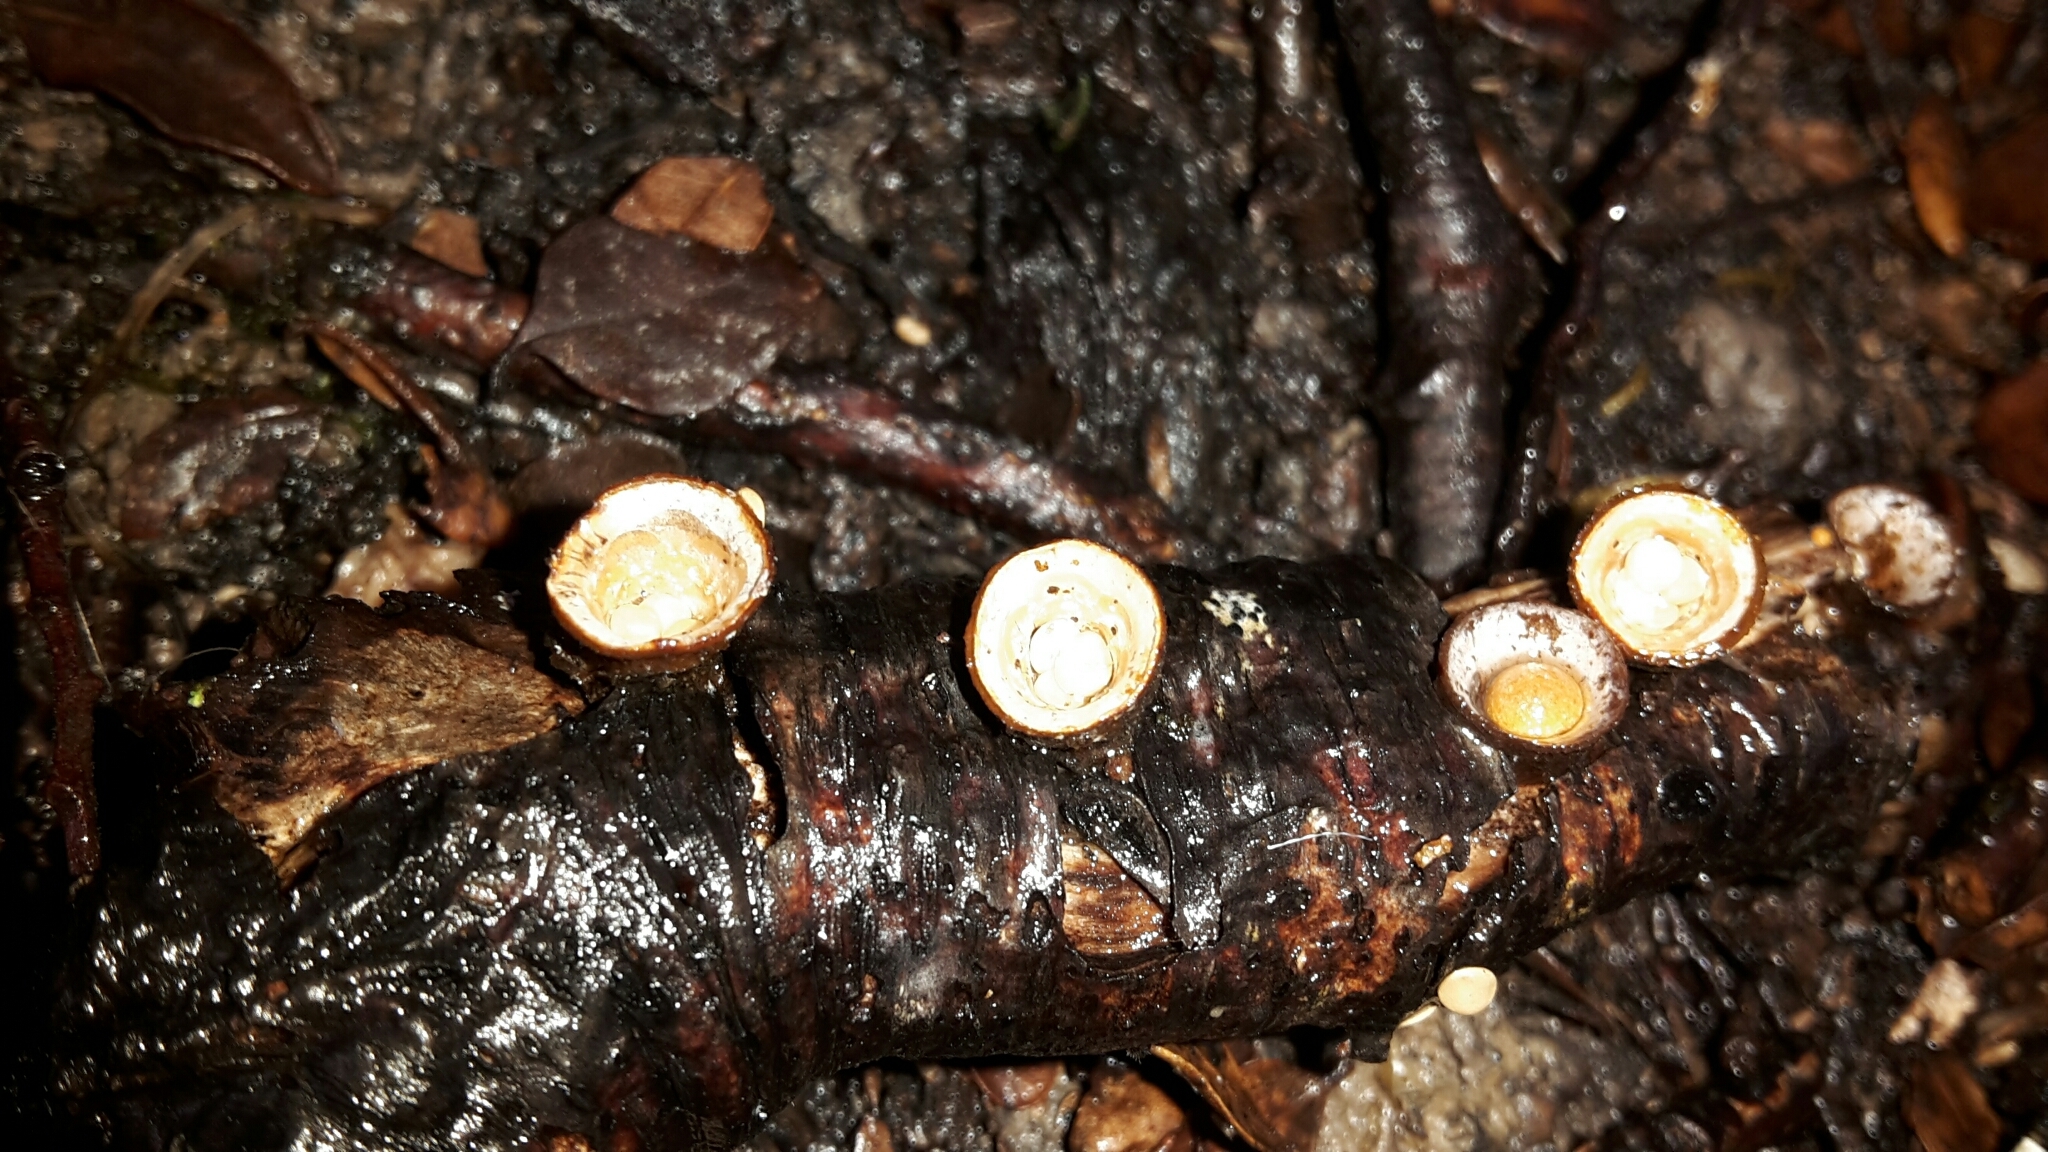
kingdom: Fungi
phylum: Basidiomycota
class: Agaricomycetes
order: Agaricales
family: Nidulariaceae
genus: Crucibulum
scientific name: Crucibulum simile
